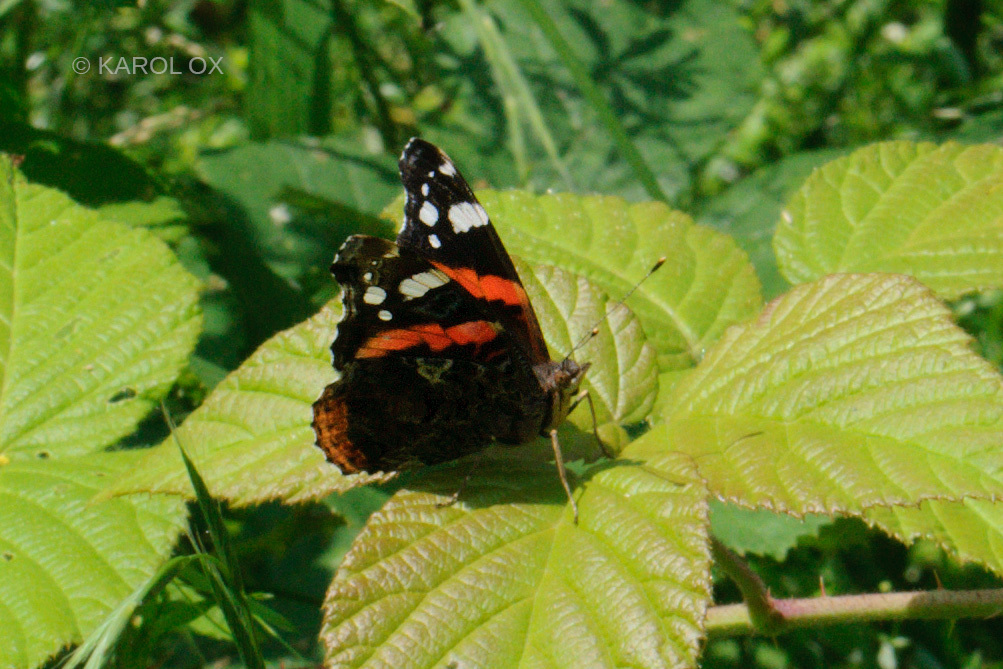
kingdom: Animalia
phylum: Arthropoda
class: Insecta
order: Lepidoptera
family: Nymphalidae
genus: Vanessa
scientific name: Vanessa atalanta
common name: Red admiral
